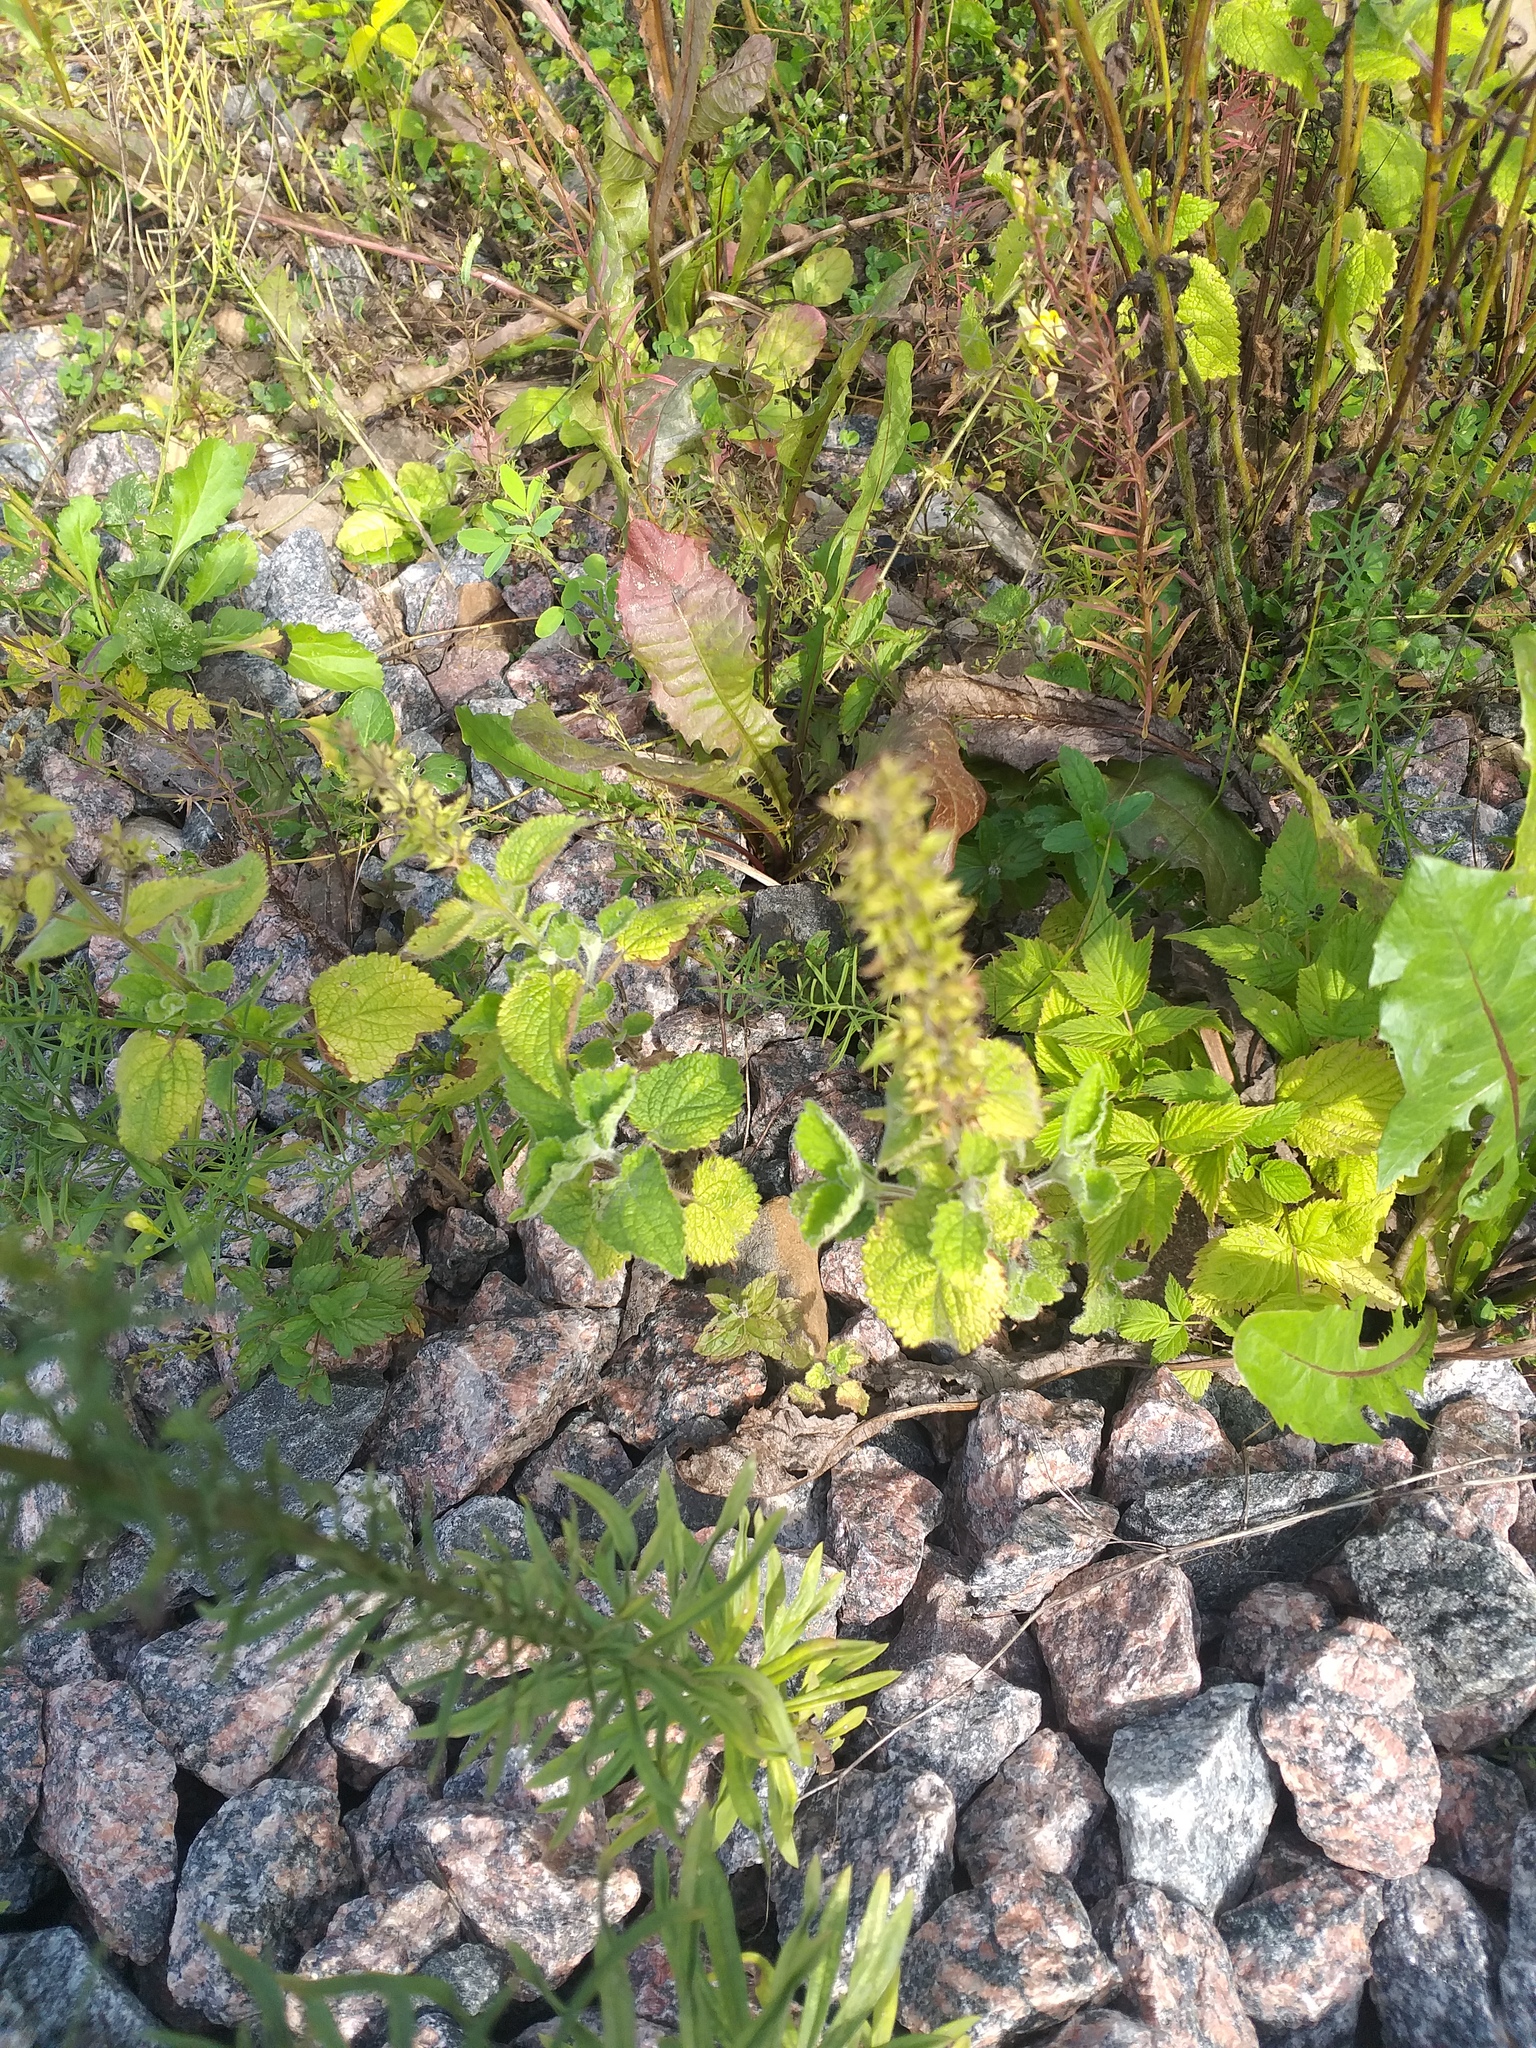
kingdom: Plantae
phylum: Tracheophyta
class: Magnoliopsida
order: Lamiales
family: Lamiaceae
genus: Stachys
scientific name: Stachys sylvatica
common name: Hedge woundwort
